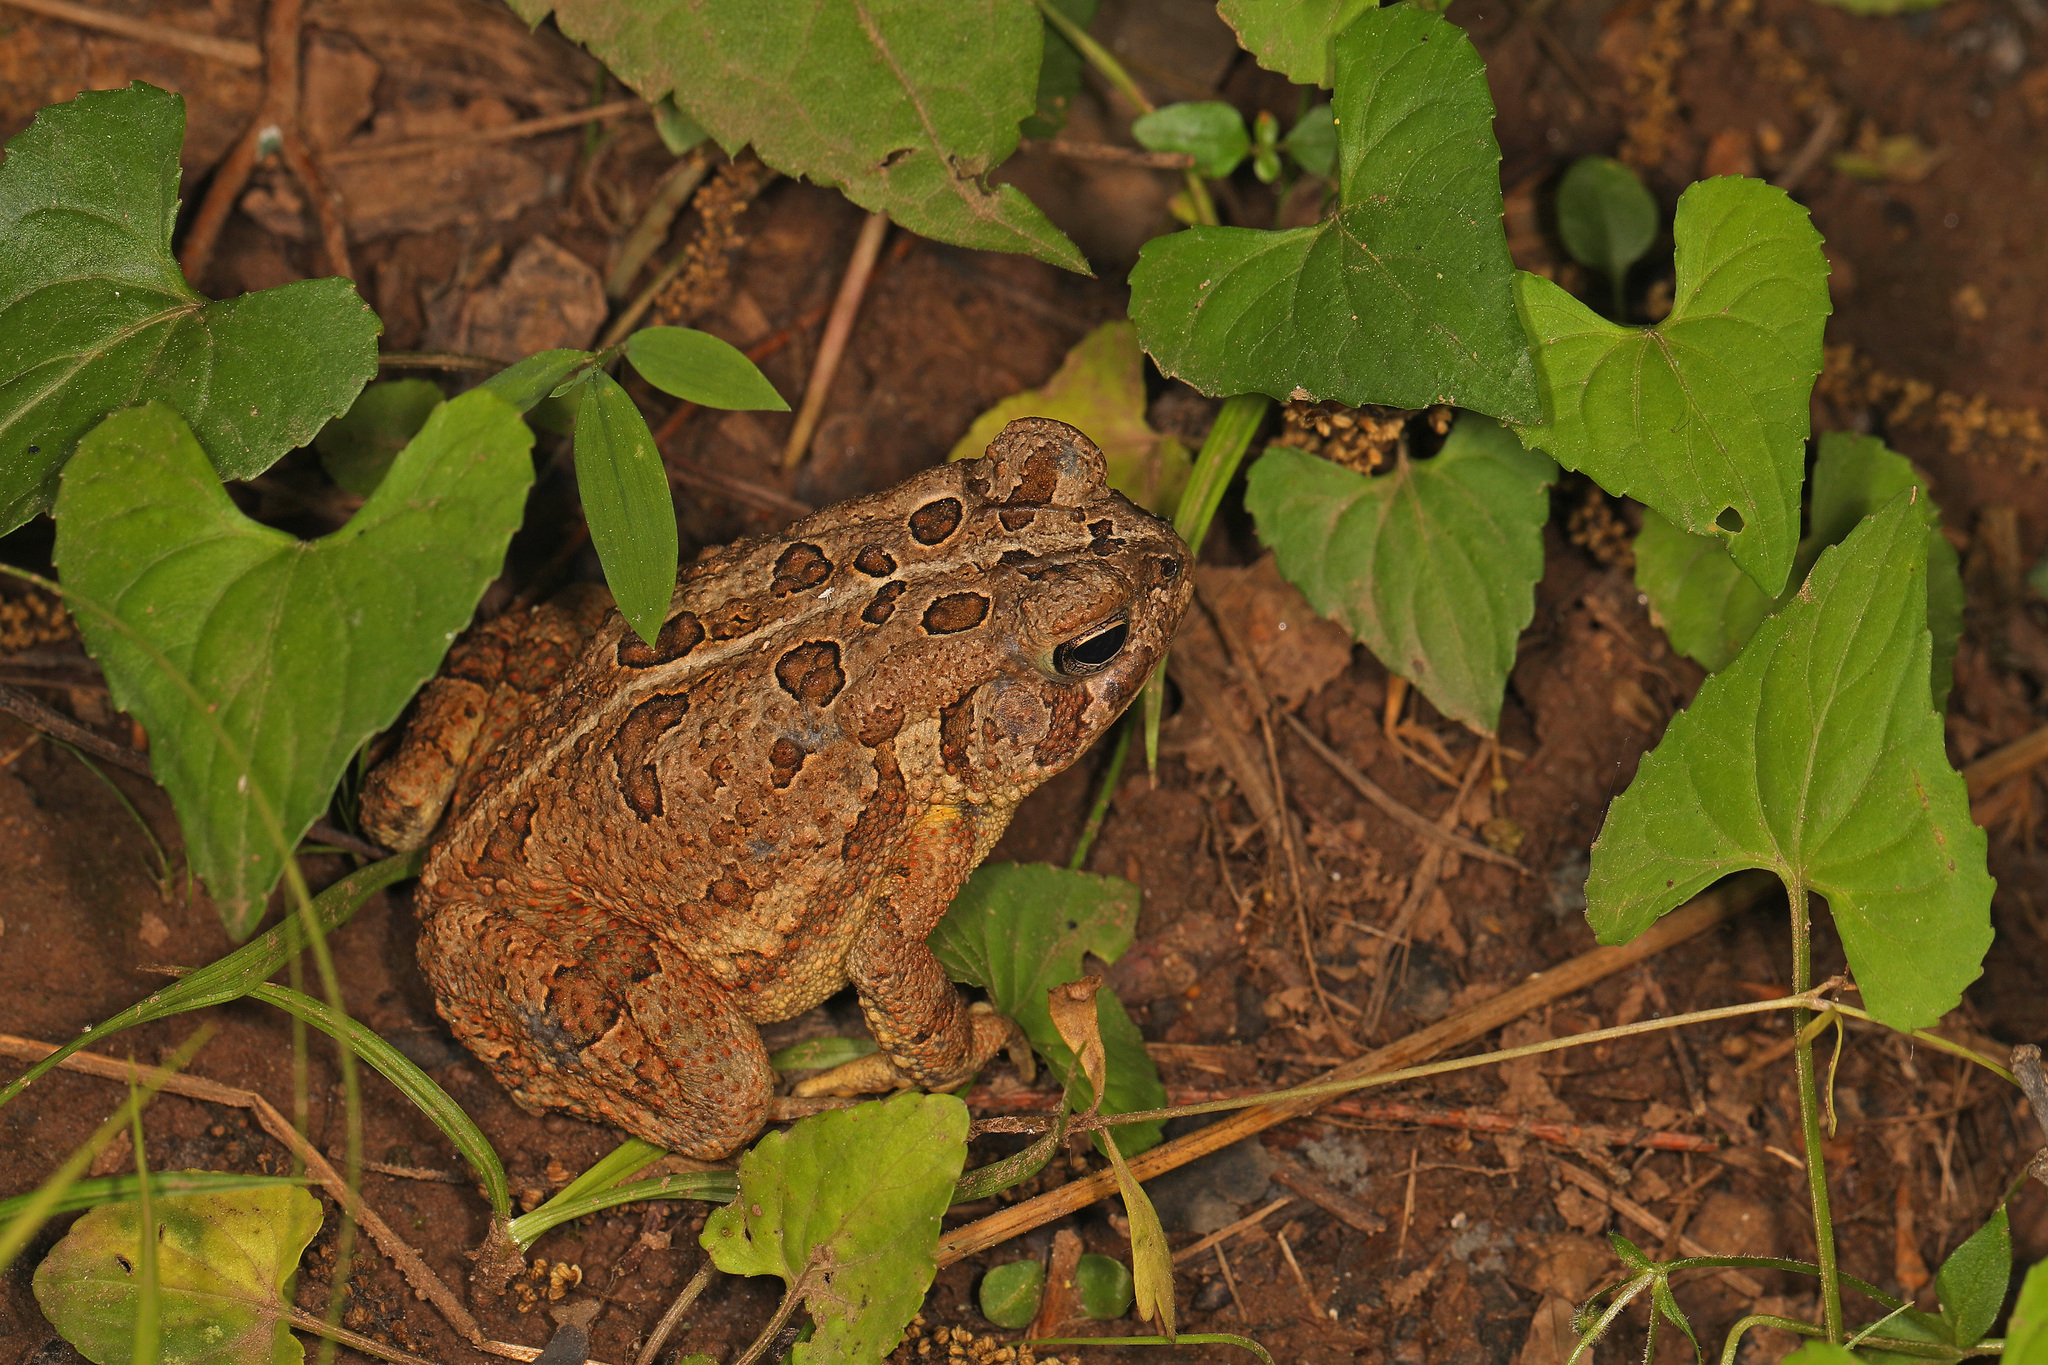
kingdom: Animalia
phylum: Chordata
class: Amphibia
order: Anura
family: Bufonidae
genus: Anaxyrus
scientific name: Anaxyrus fowleri
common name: Fowler's toad
